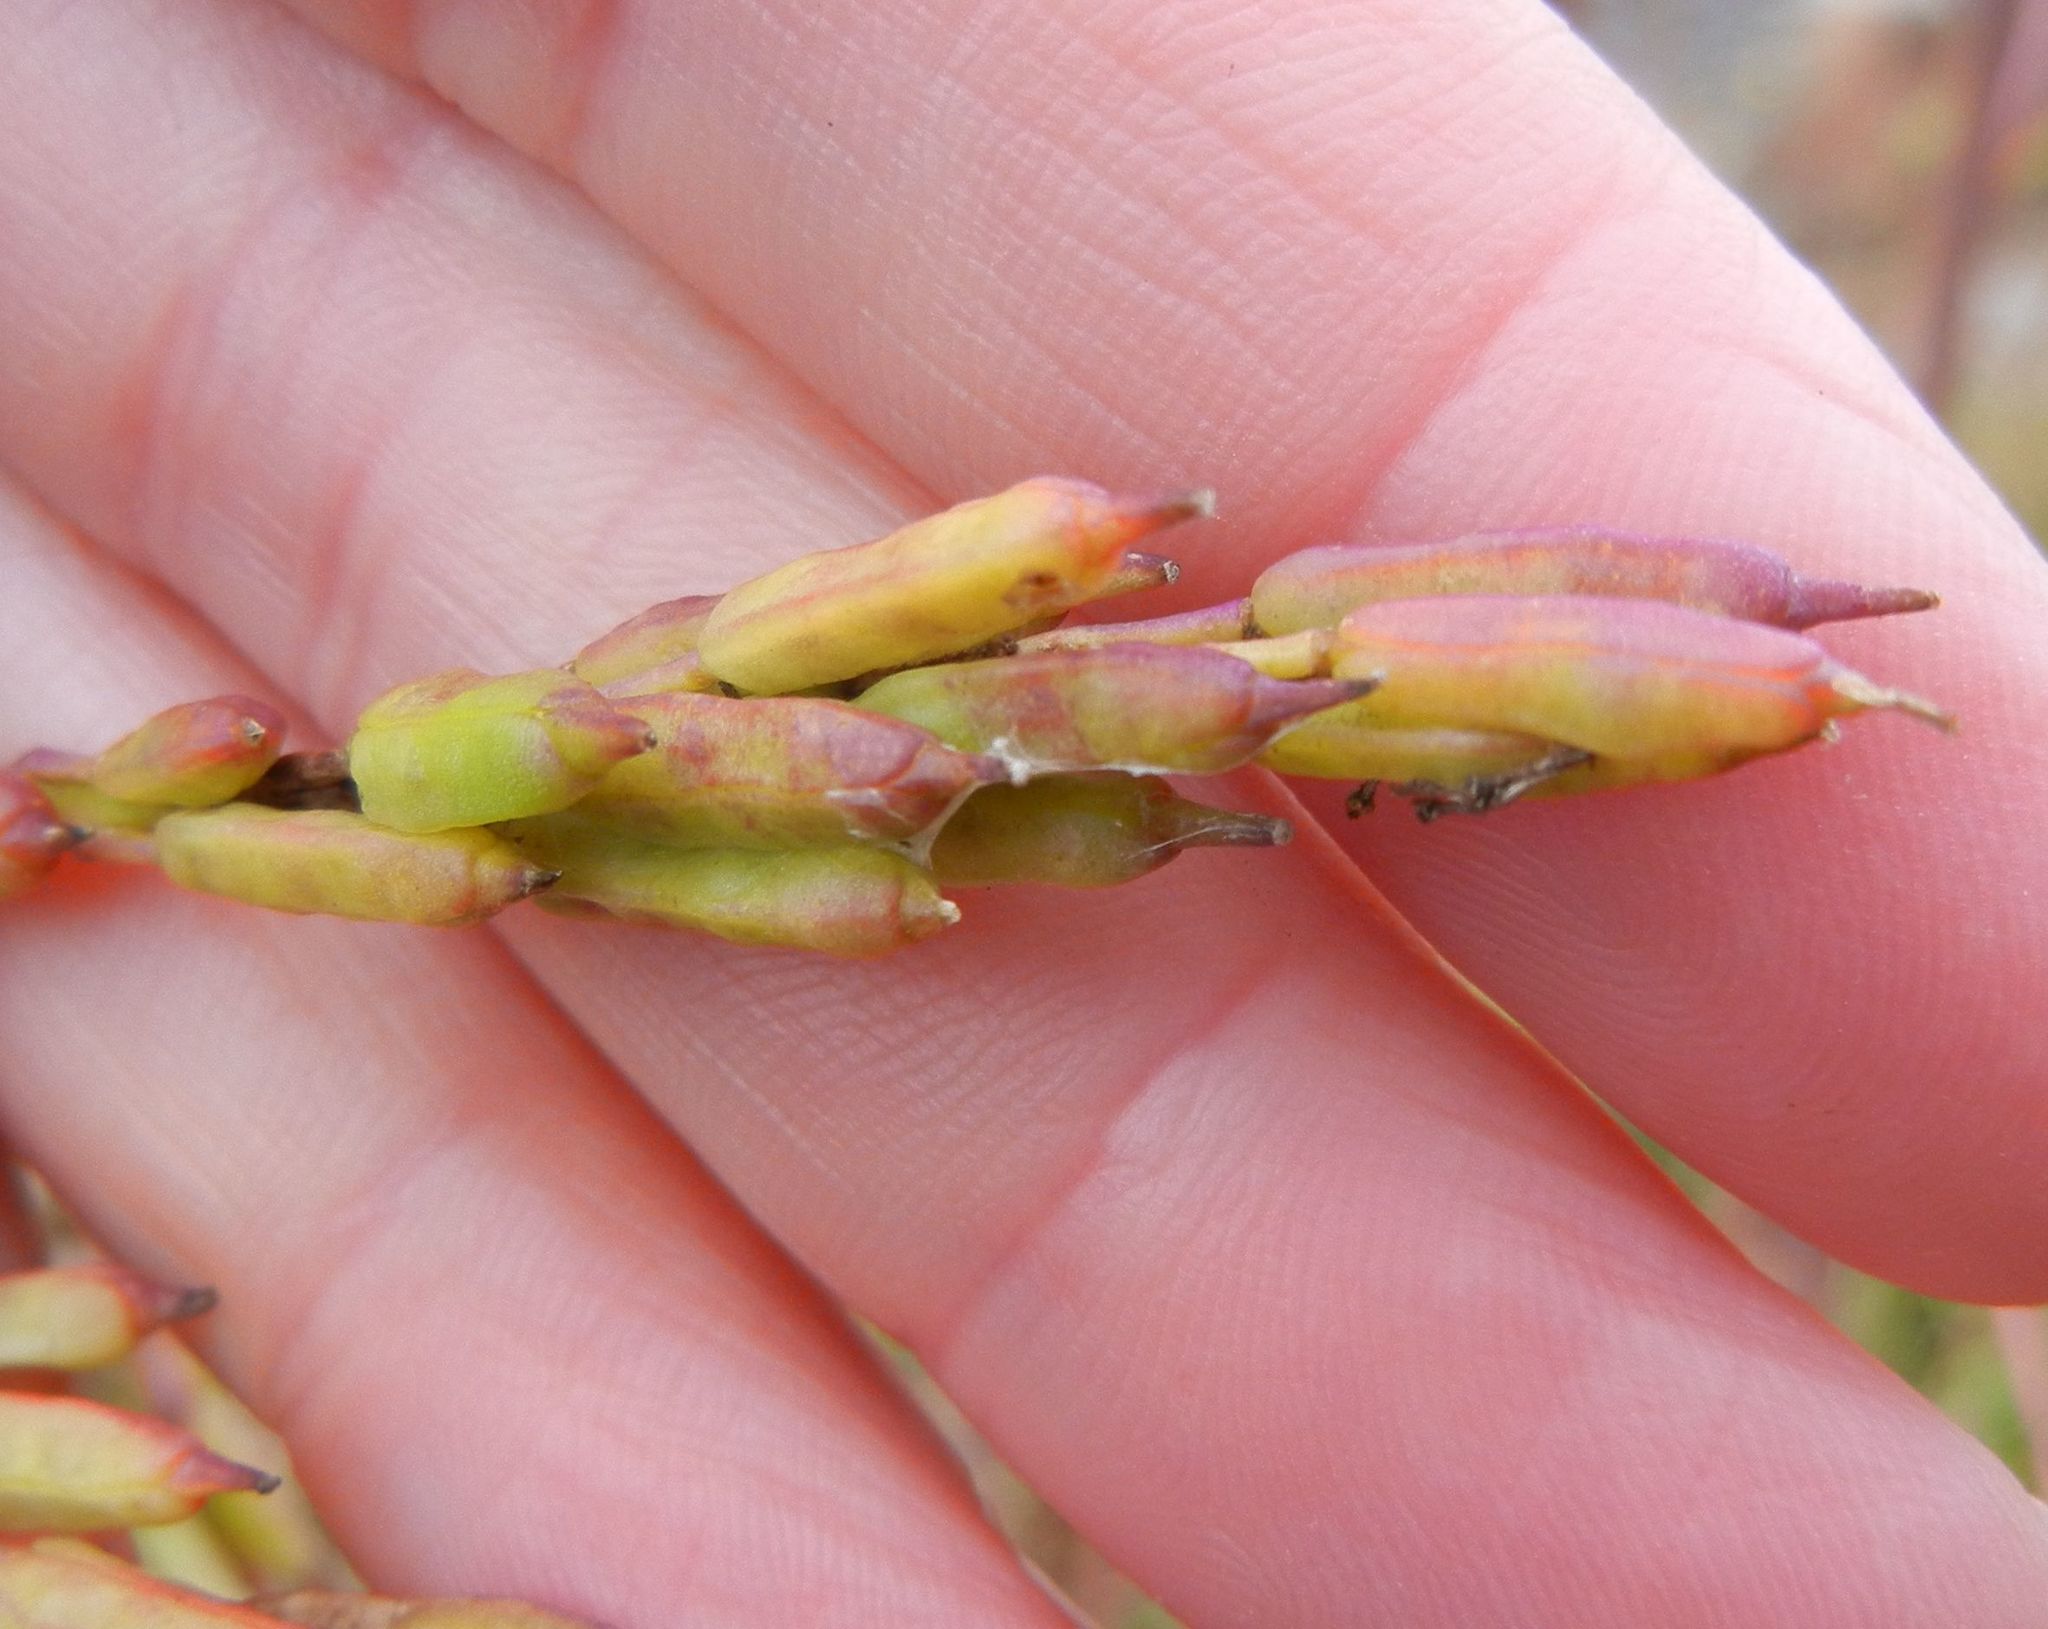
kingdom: Plantae
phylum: Tracheophyta
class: Magnoliopsida
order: Brassicales
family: Brassicaceae
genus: Brassica
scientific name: Brassica nigra
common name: Black mustard
